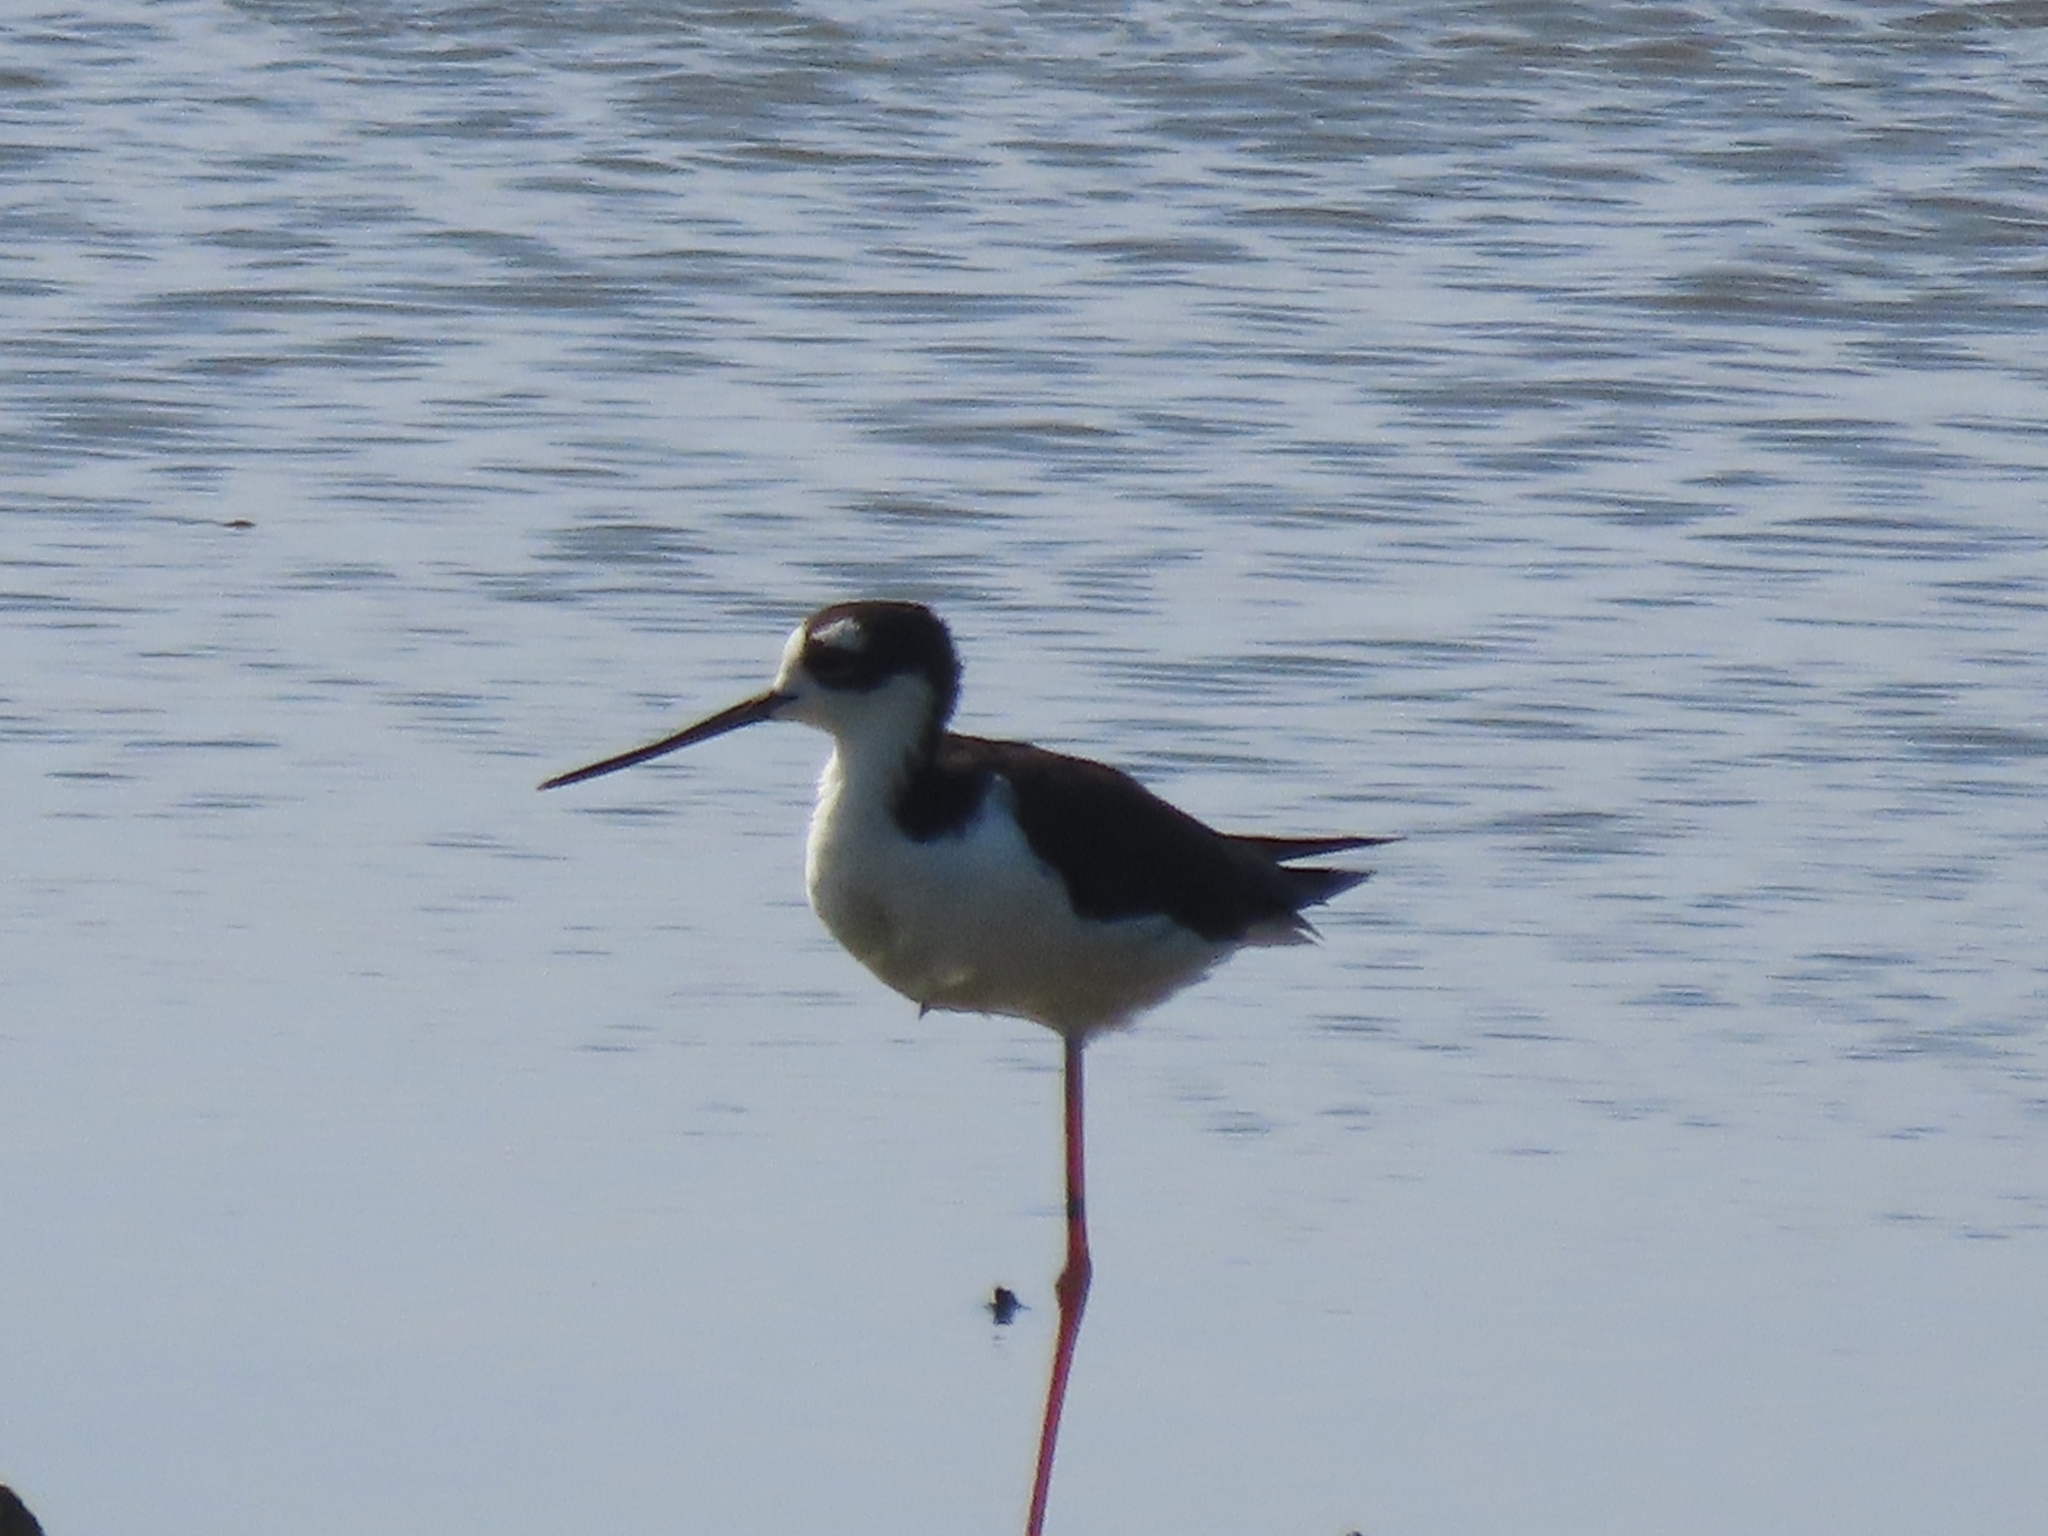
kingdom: Animalia
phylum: Chordata
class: Aves
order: Charadriiformes
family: Recurvirostridae
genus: Himantopus
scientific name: Himantopus mexicanus
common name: Black-necked stilt
